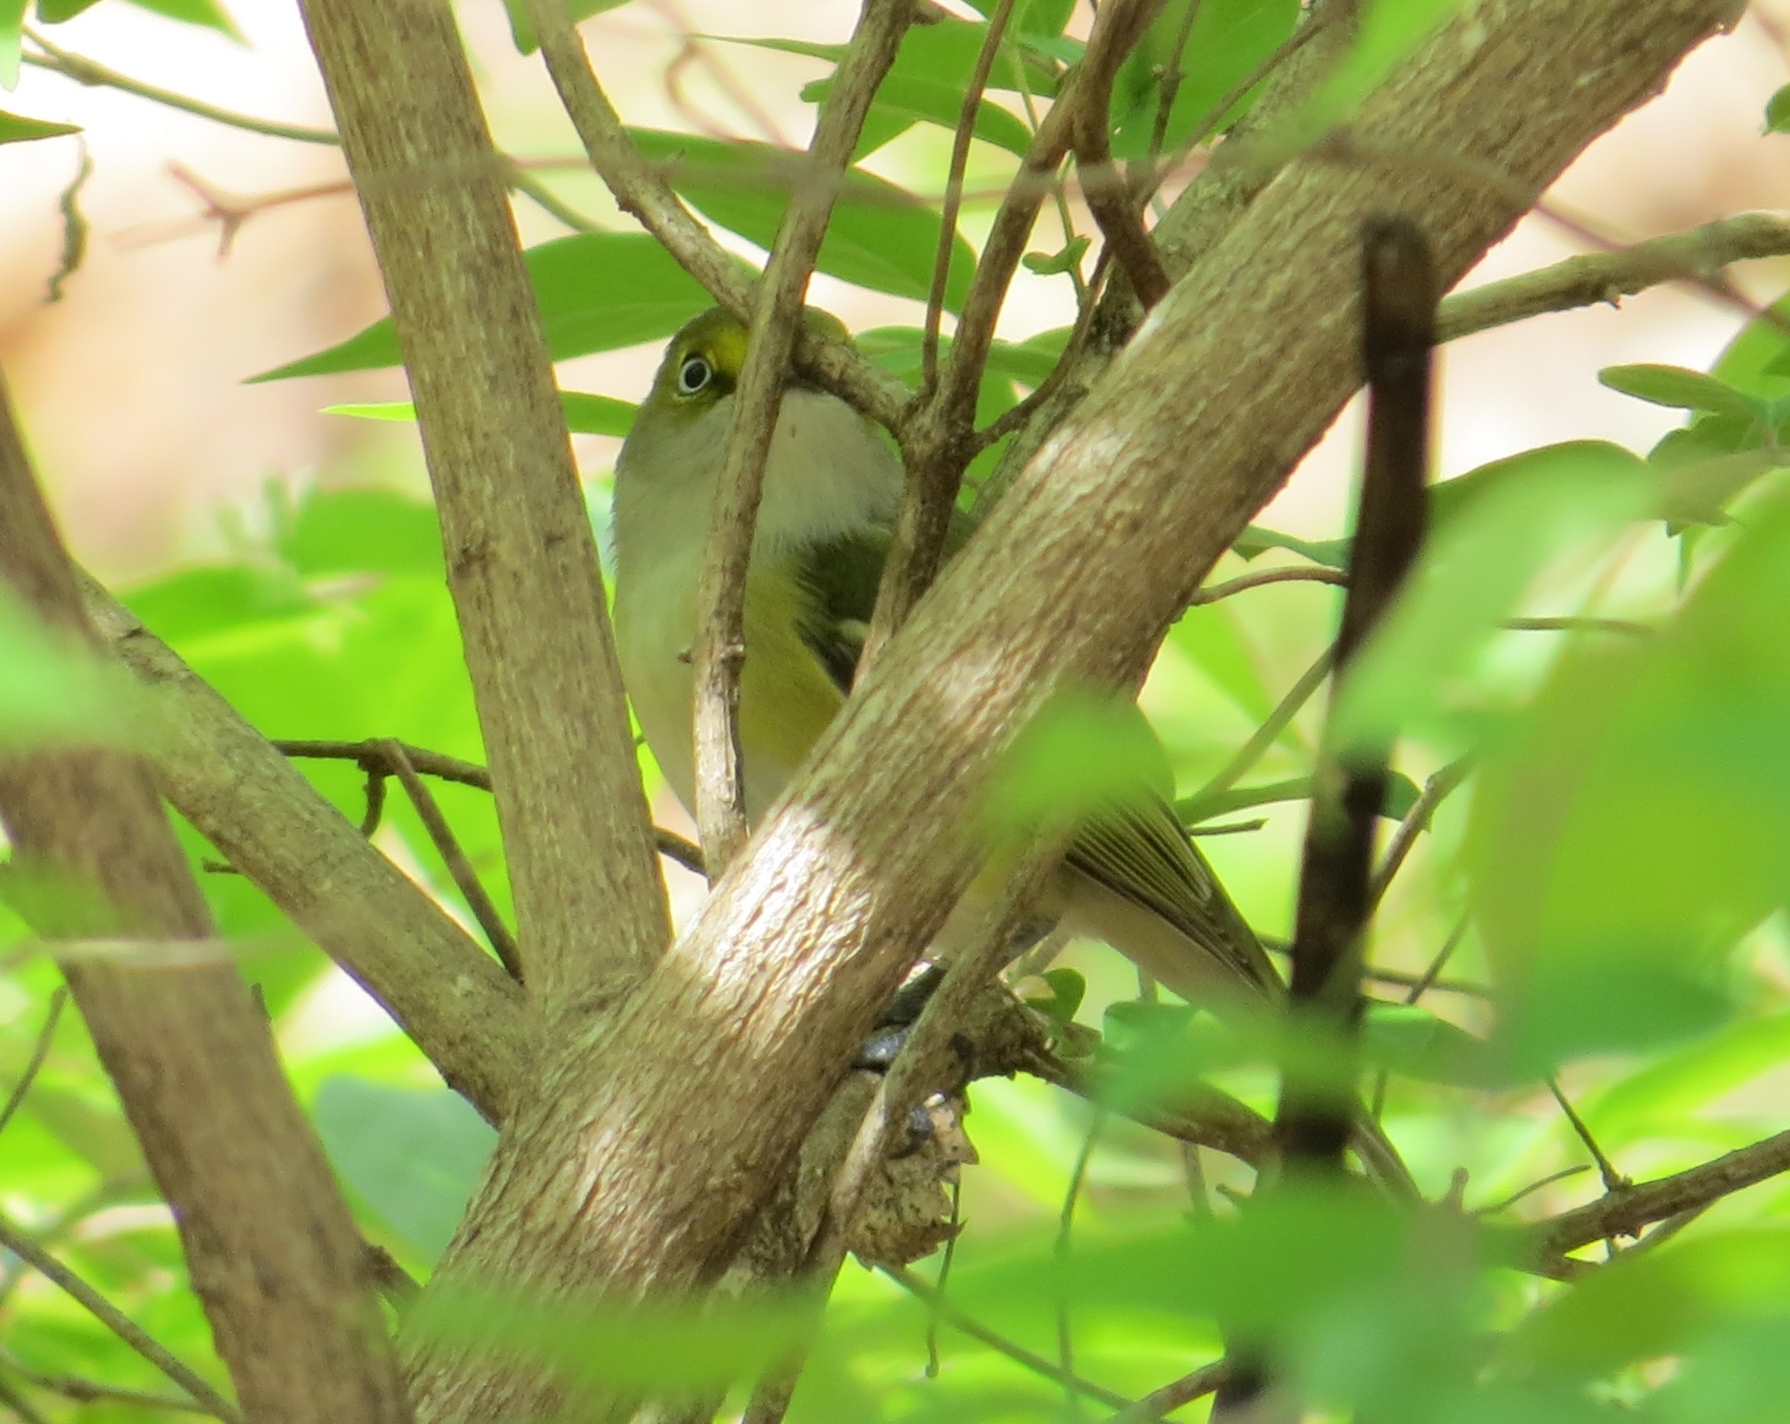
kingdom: Animalia
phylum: Chordata
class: Aves
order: Passeriformes
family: Vireonidae
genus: Vireo
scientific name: Vireo griseus
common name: White-eyed vireo
